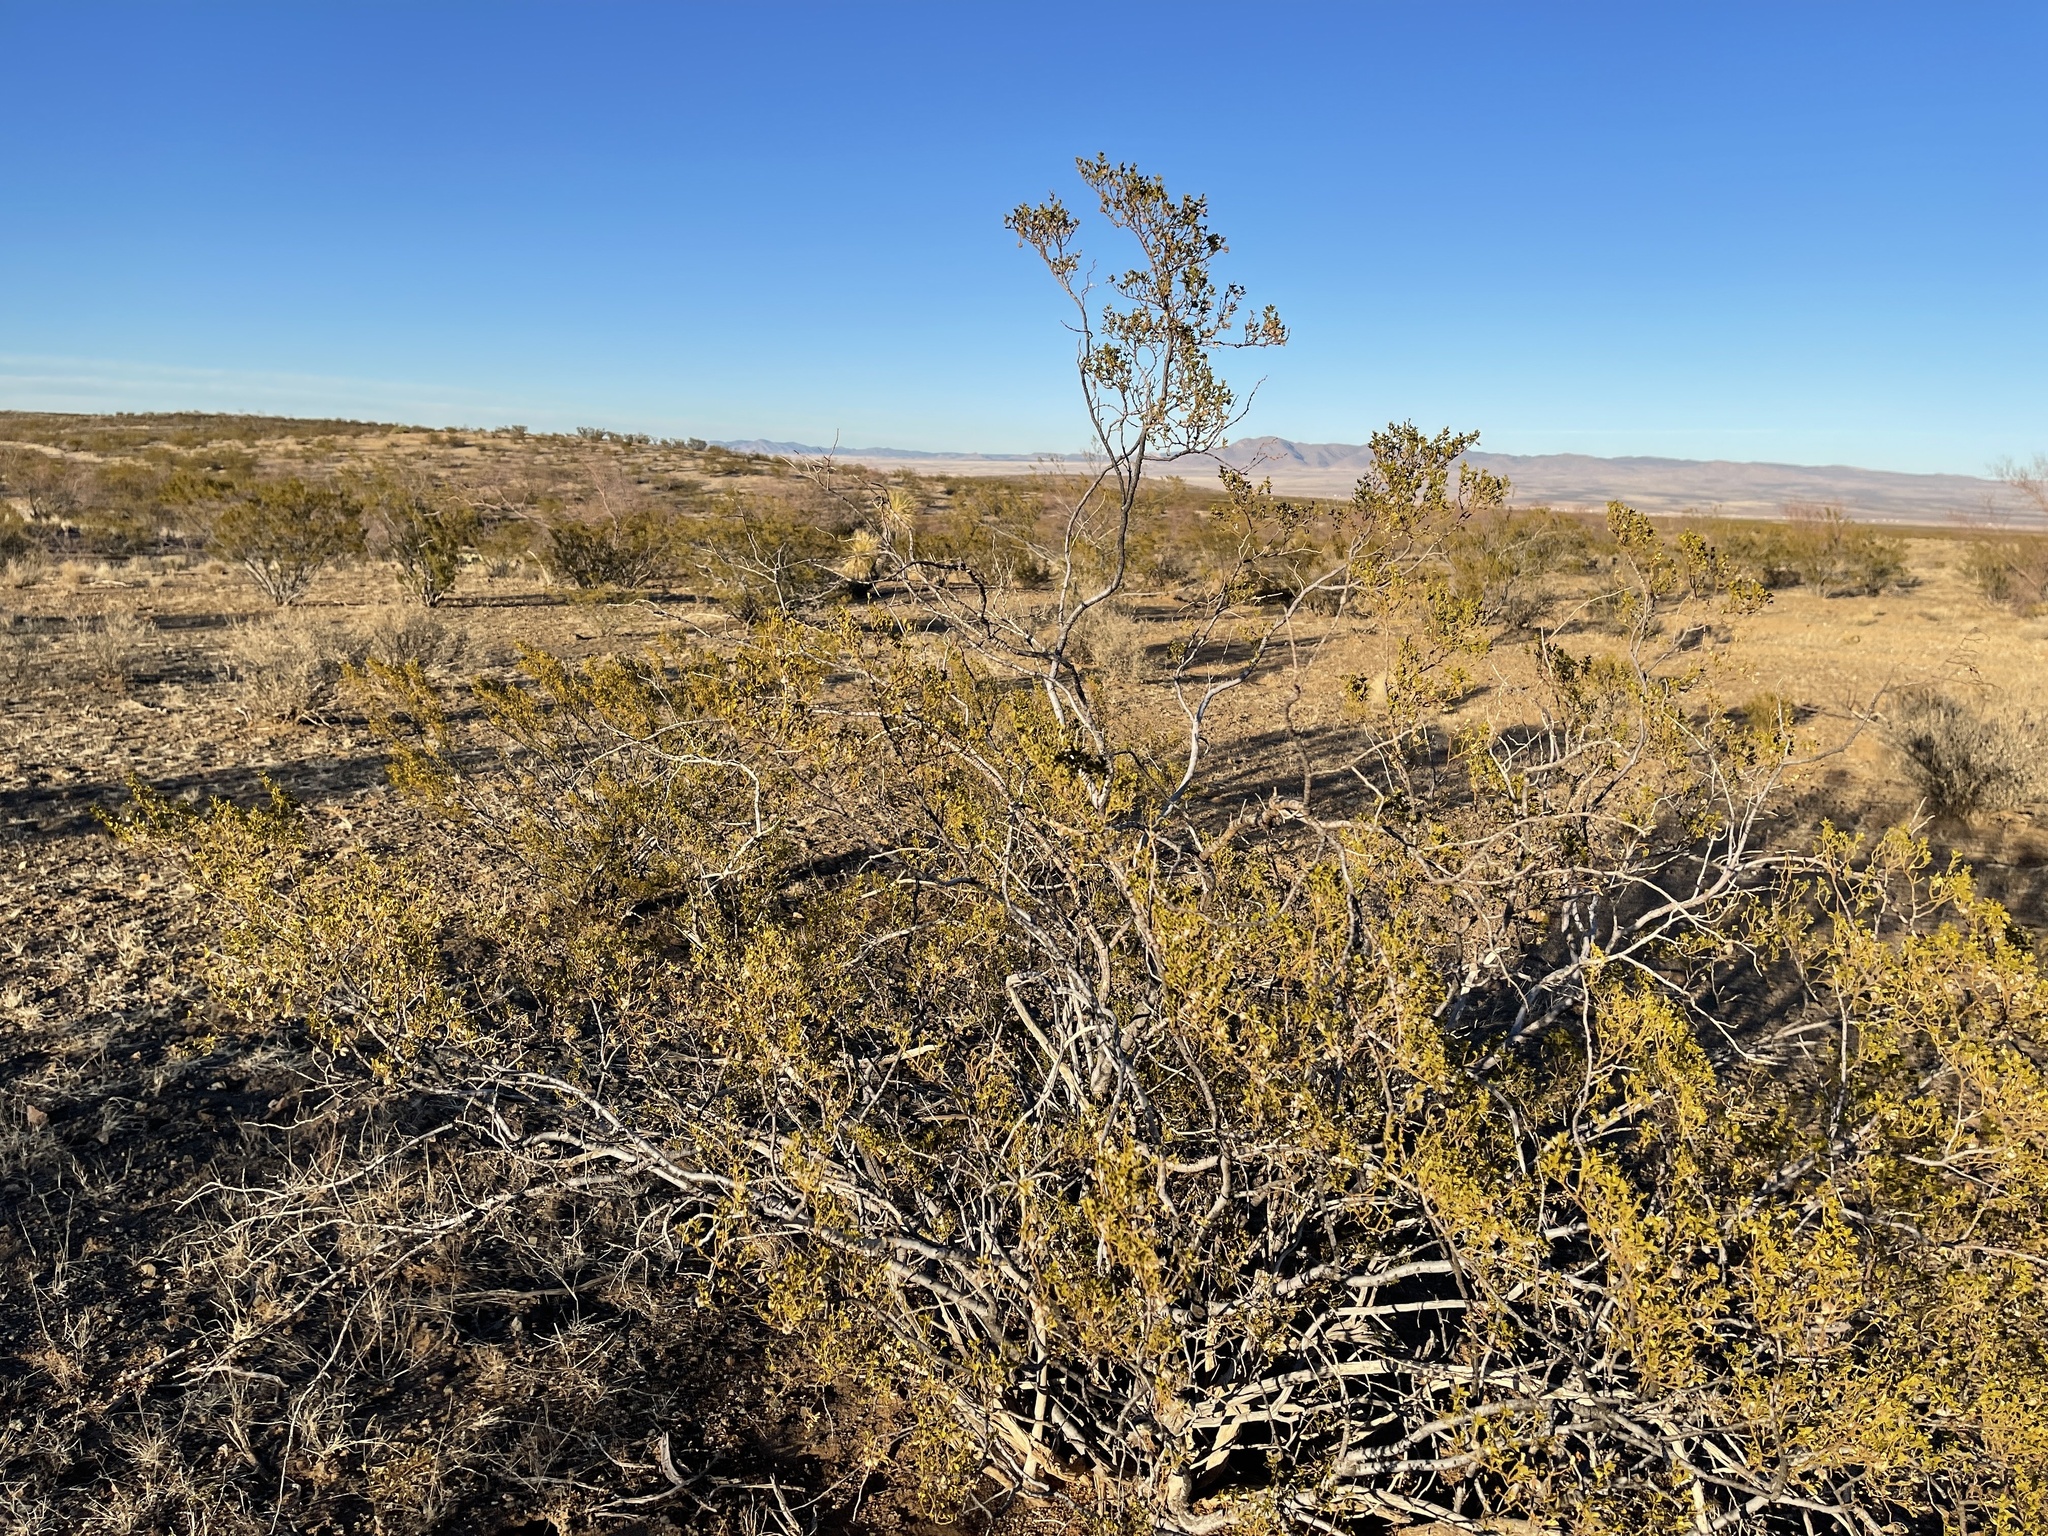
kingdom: Plantae
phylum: Tracheophyta
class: Magnoliopsida
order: Zygophyllales
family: Zygophyllaceae
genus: Larrea
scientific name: Larrea tridentata
